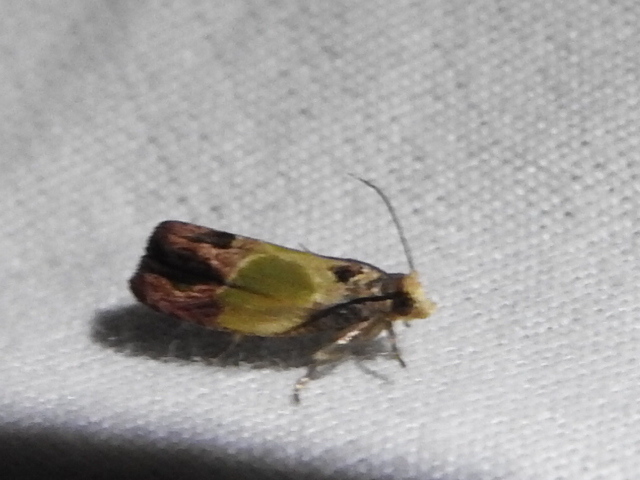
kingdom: Animalia
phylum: Arthropoda
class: Insecta
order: Lepidoptera
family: Tortricidae
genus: Eumarozia
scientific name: Eumarozia malachitana
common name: Sculptured moth
